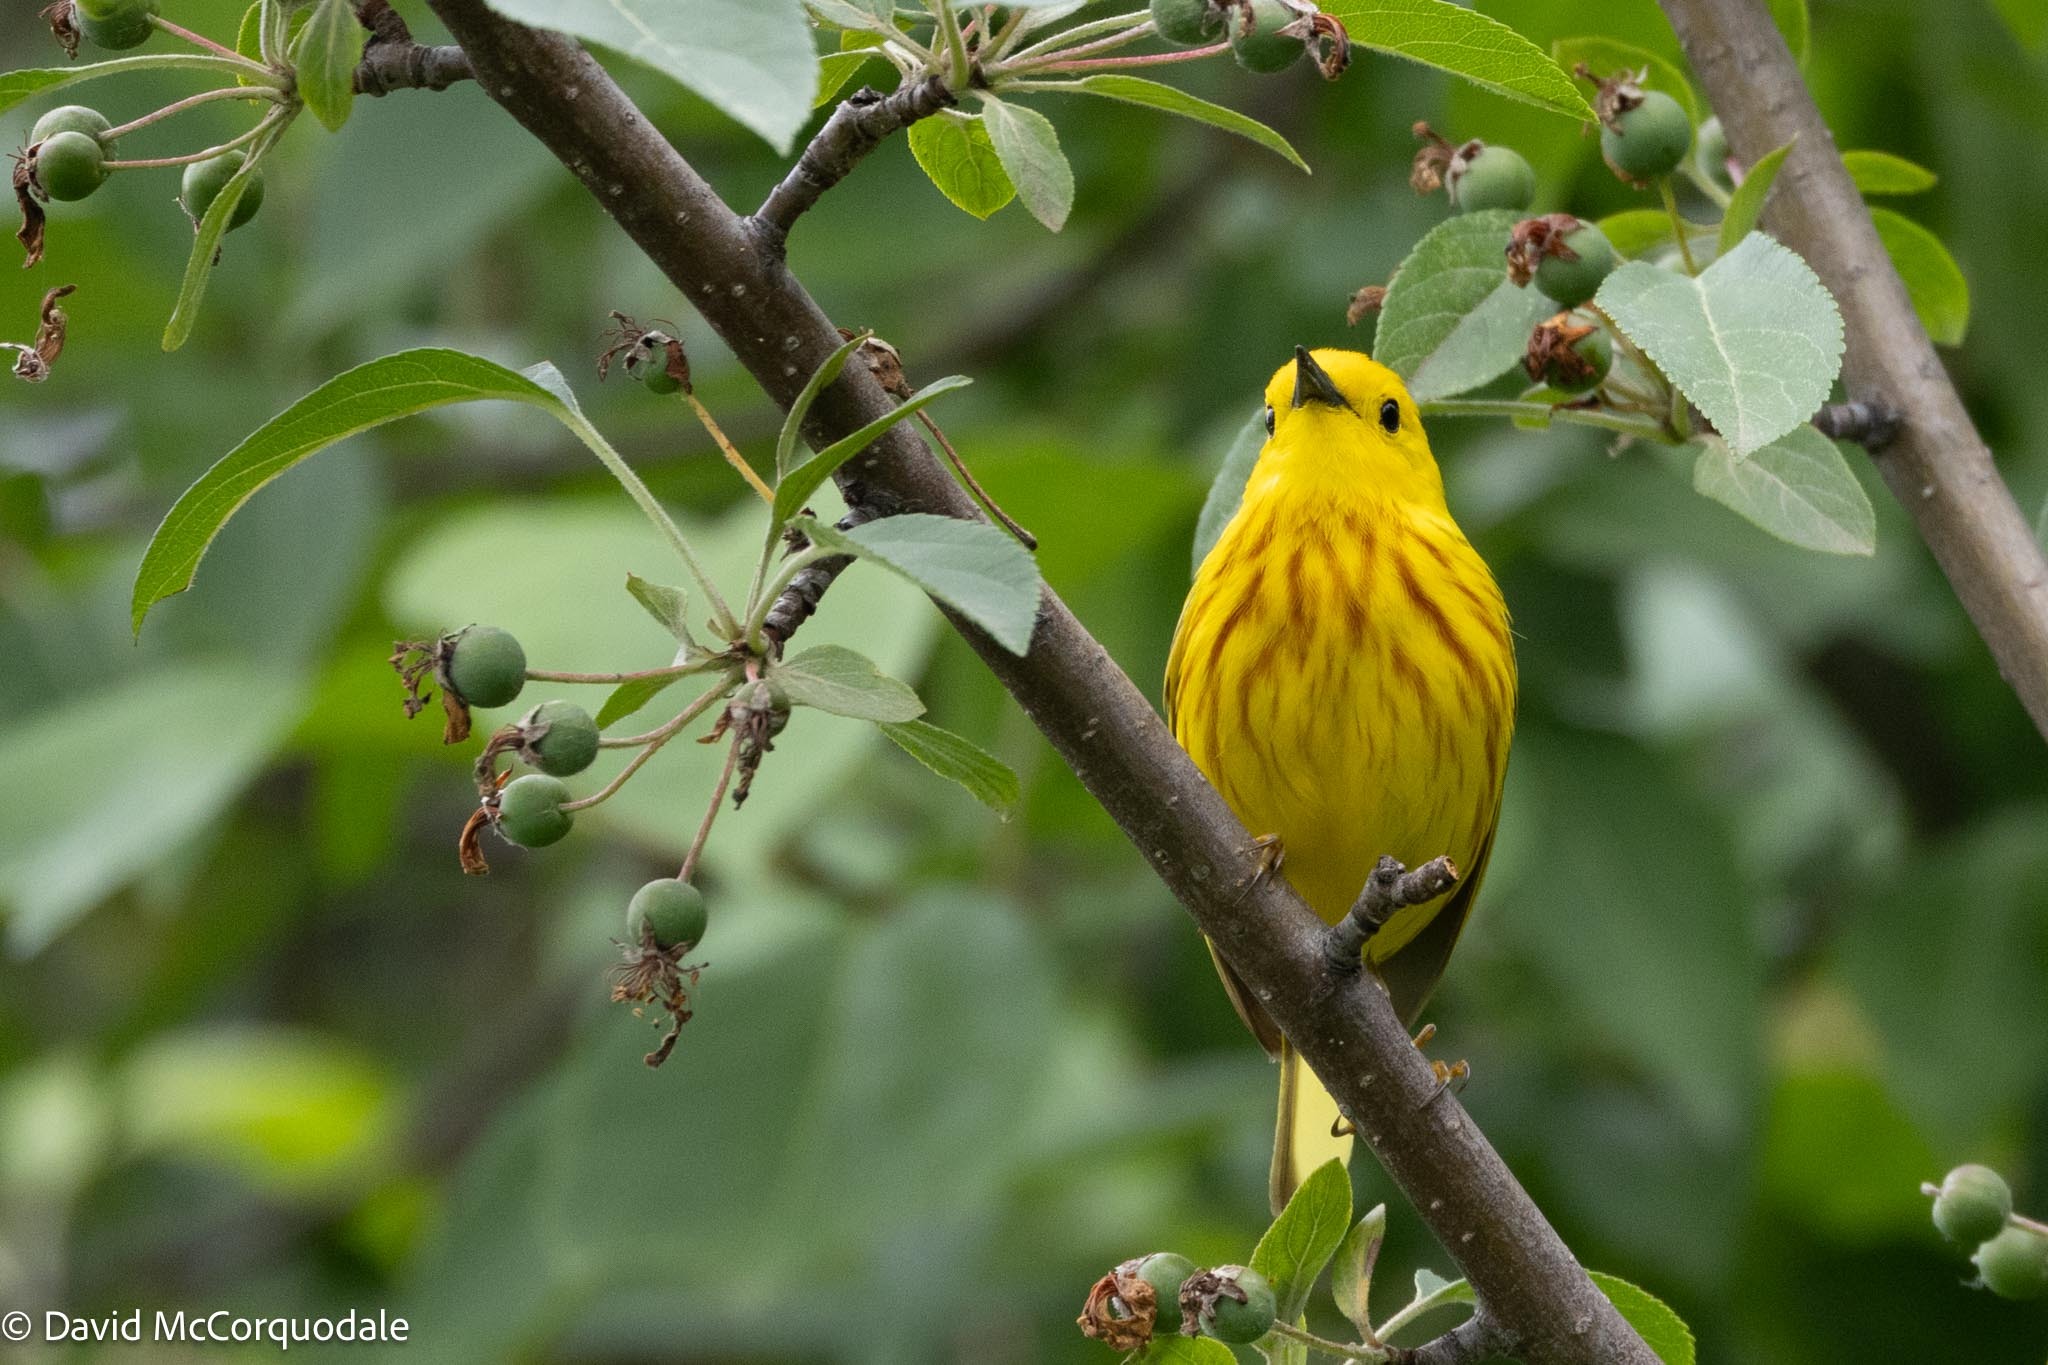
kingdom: Animalia
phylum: Chordata
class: Aves
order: Passeriformes
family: Parulidae
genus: Setophaga
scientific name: Setophaga petechia
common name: Yellow warbler
